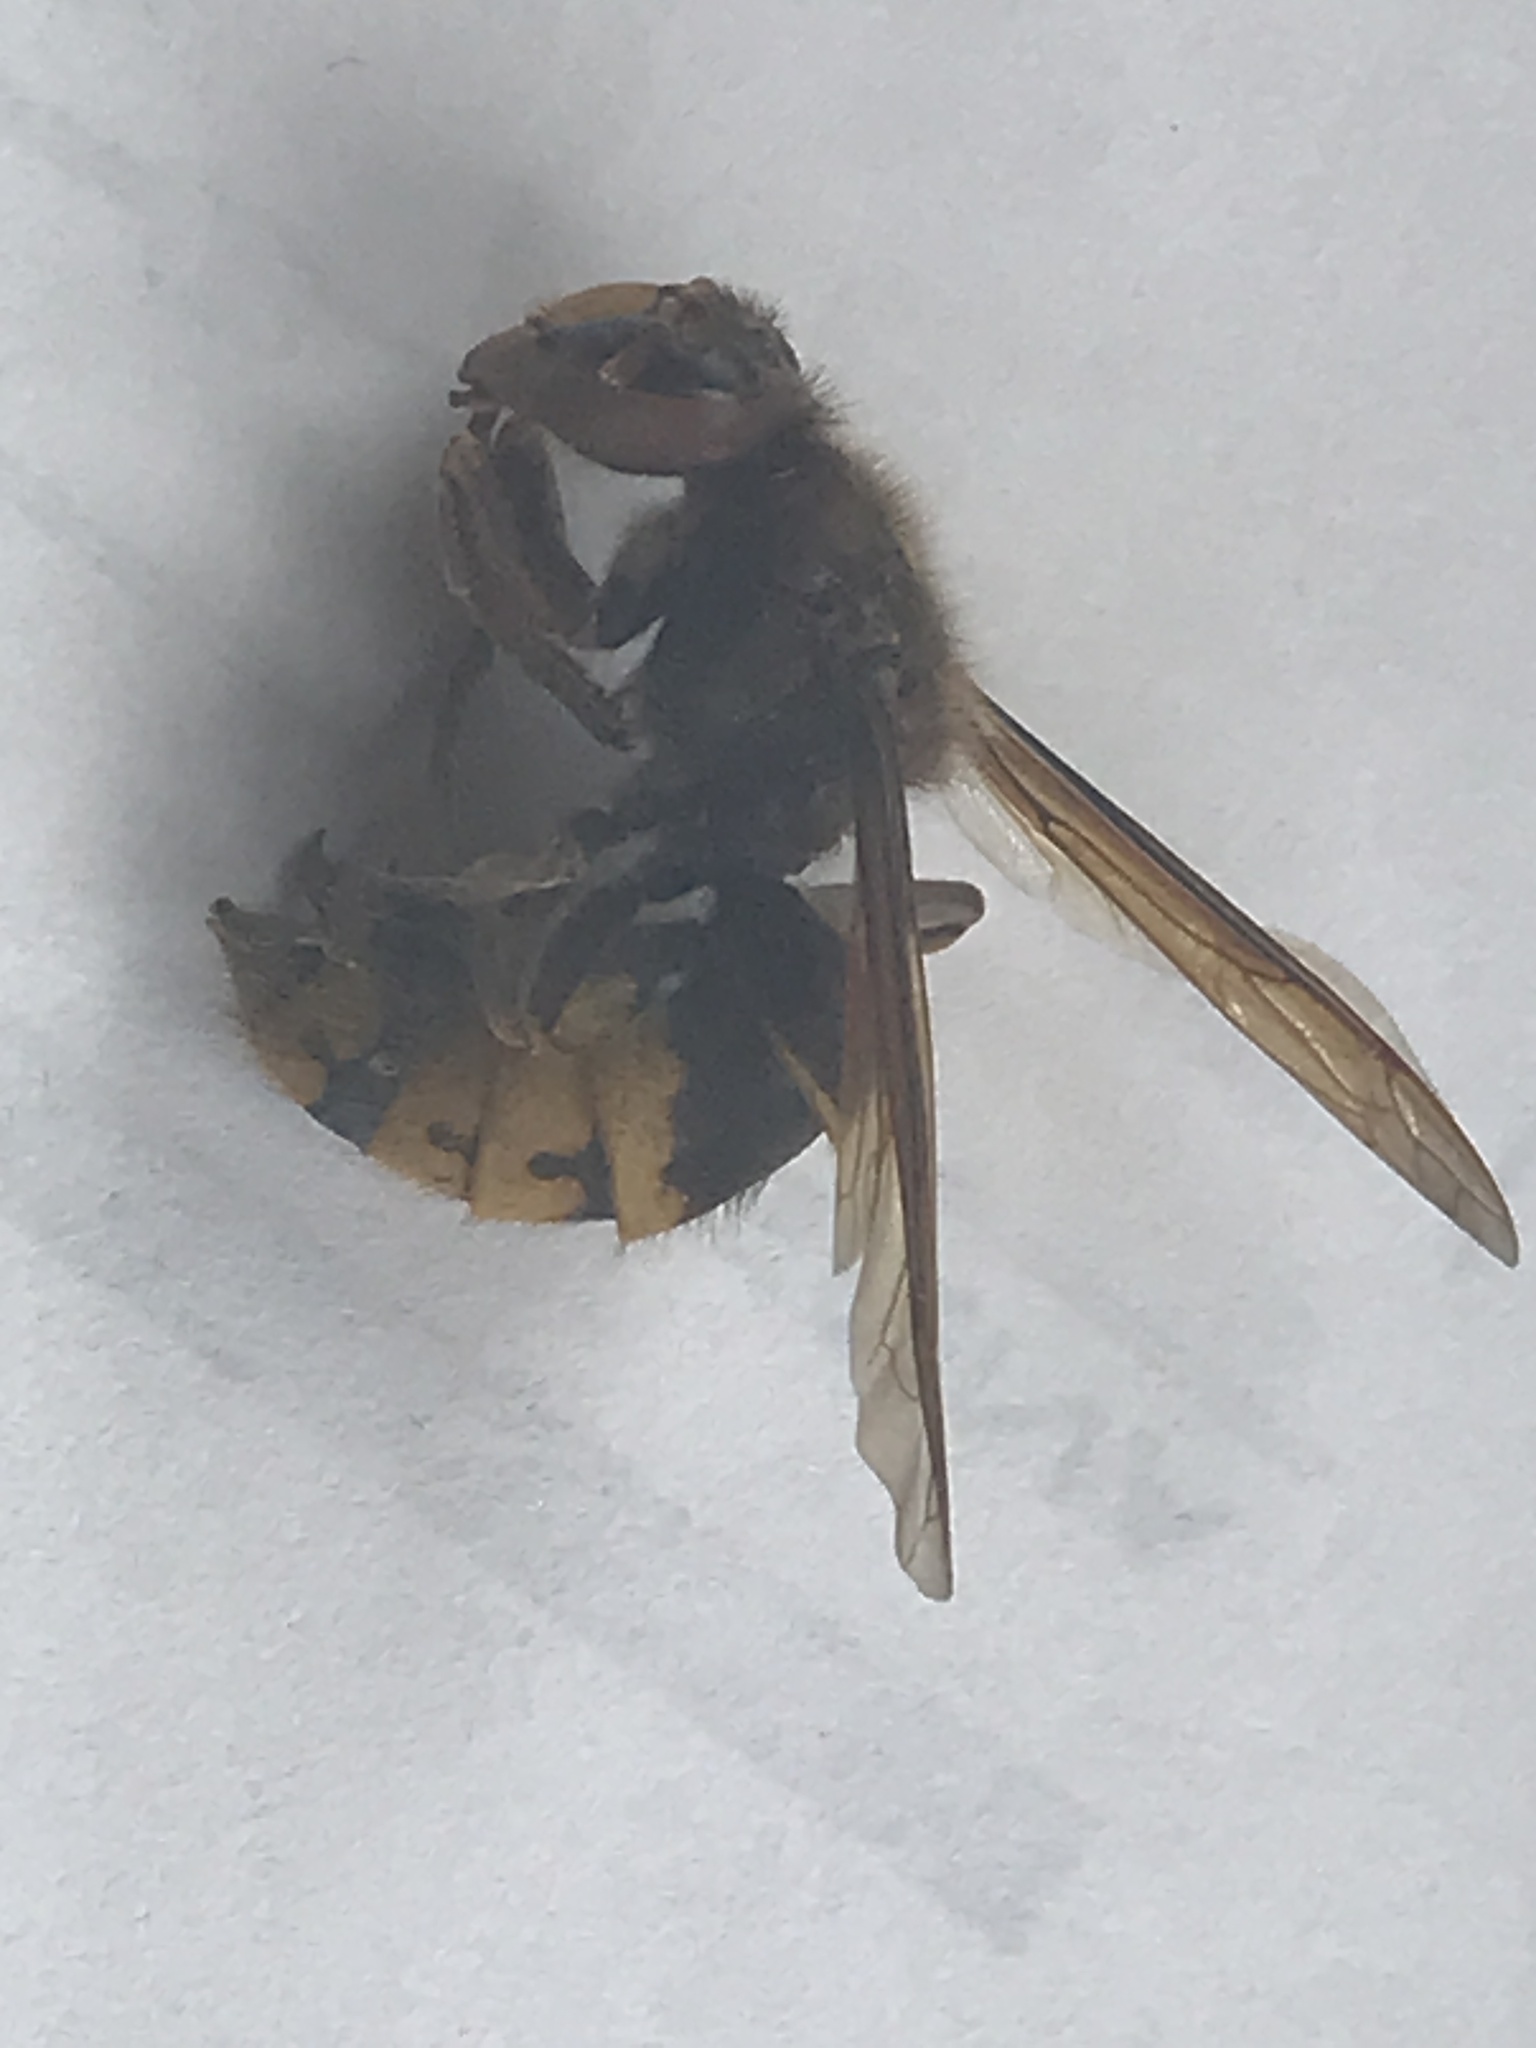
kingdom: Animalia
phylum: Arthropoda
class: Insecta
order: Hymenoptera
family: Vespidae
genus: Vespa
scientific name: Vespa crabro
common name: Hornet
